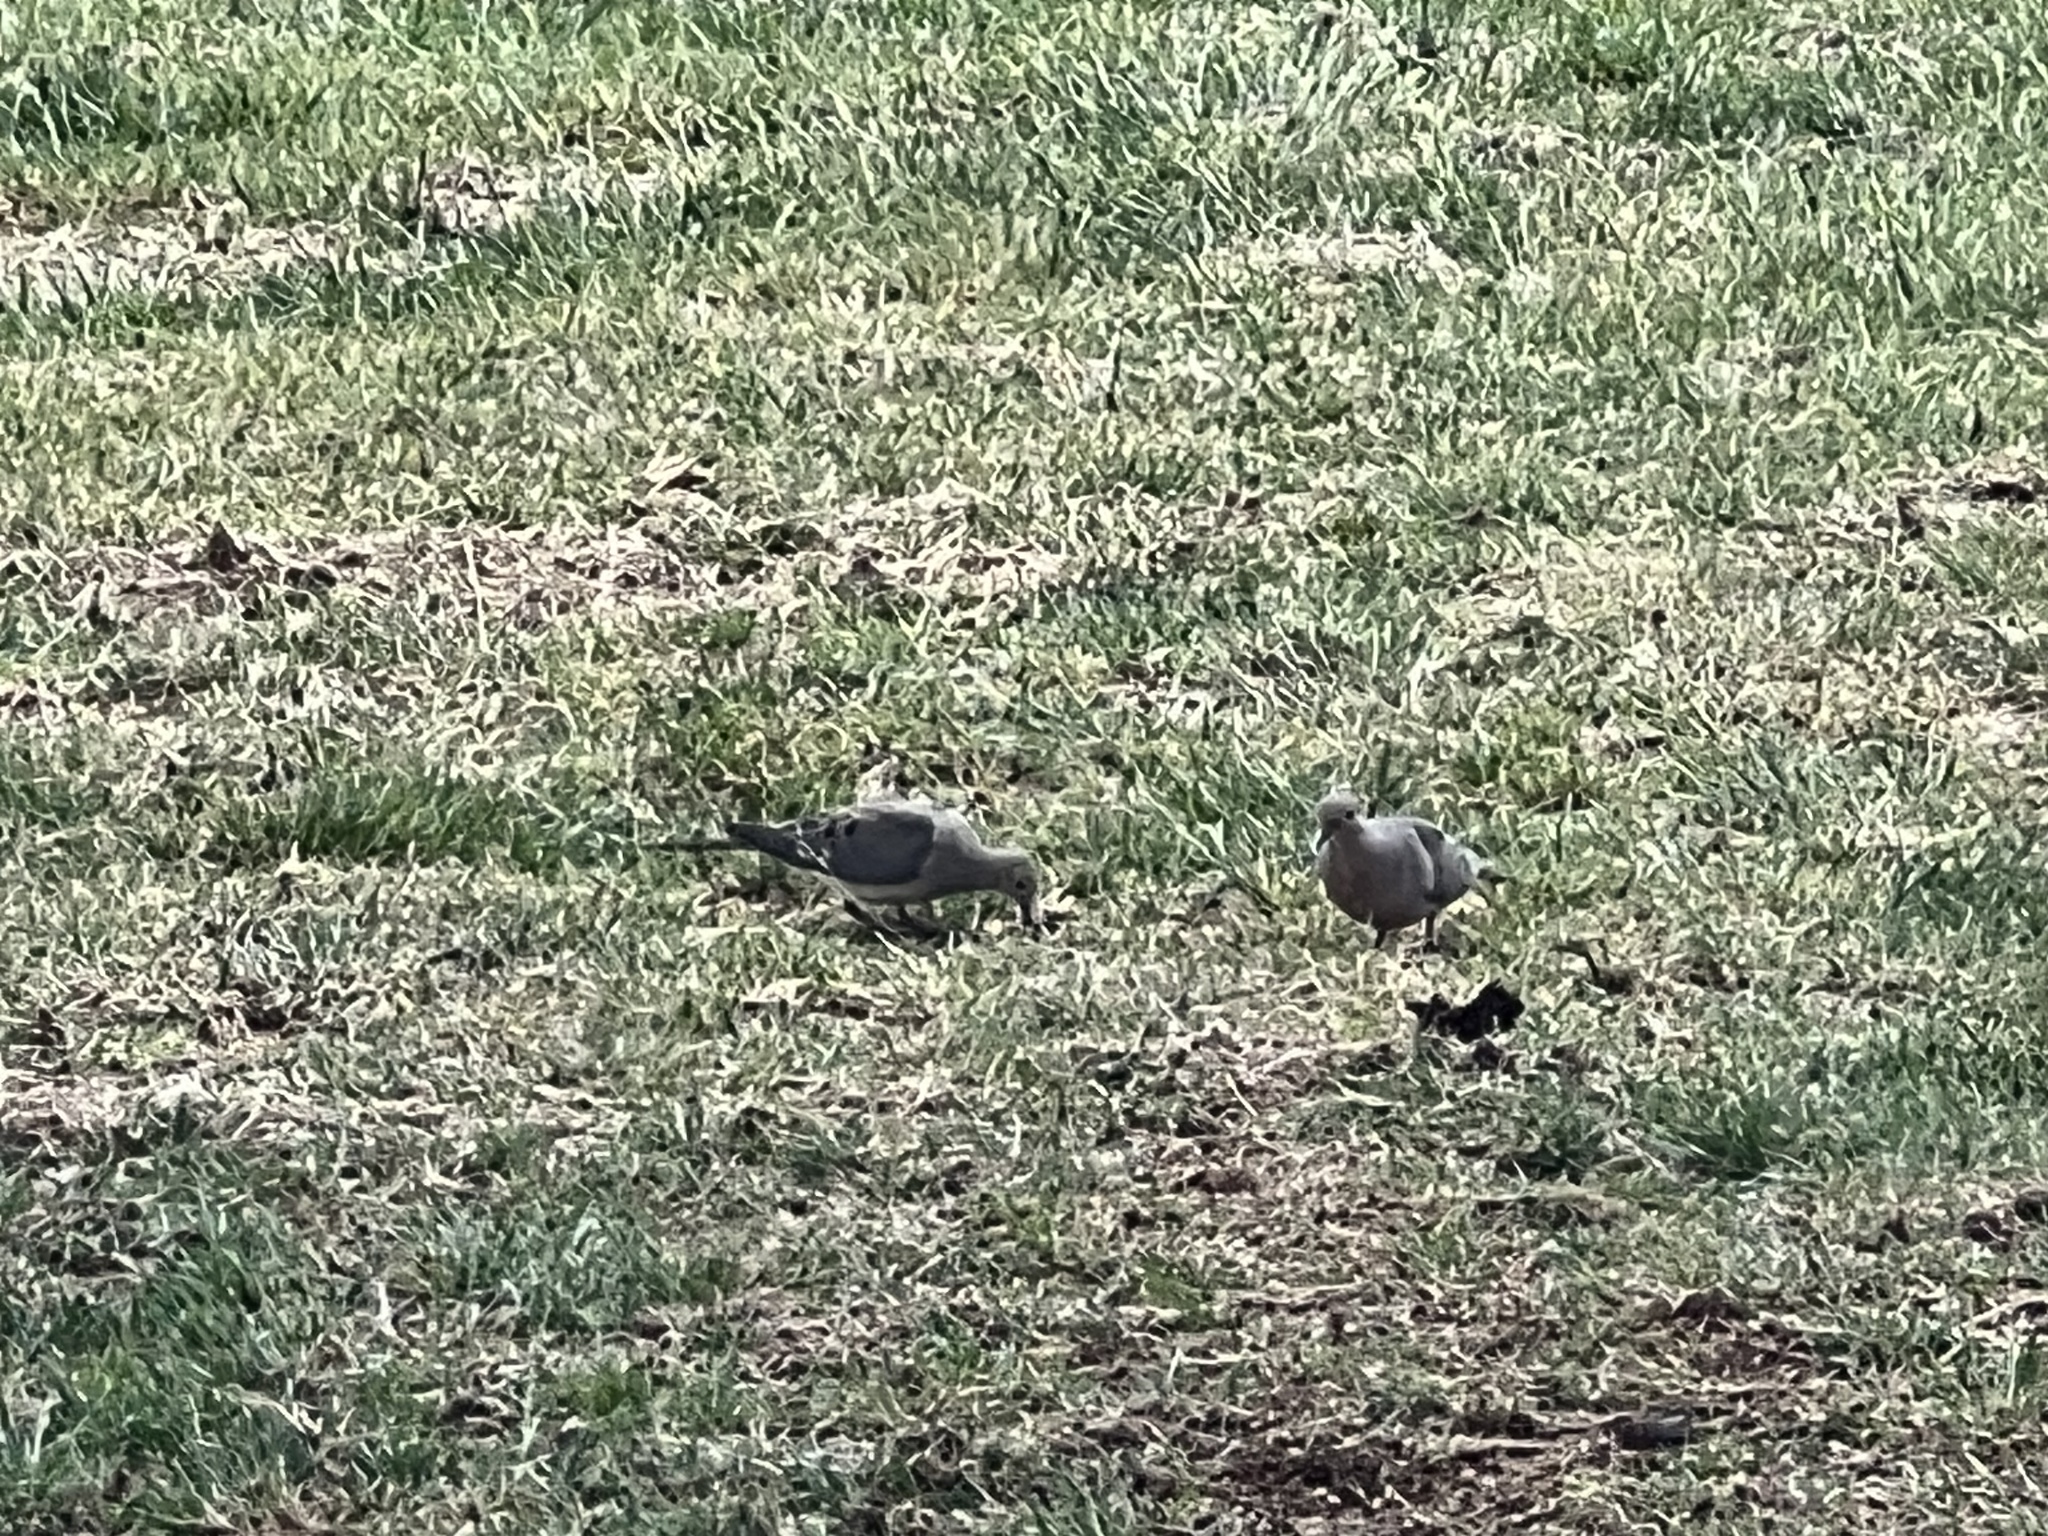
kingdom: Animalia
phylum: Chordata
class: Aves
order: Columbiformes
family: Columbidae
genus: Zenaida
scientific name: Zenaida macroura
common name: Mourning dove
